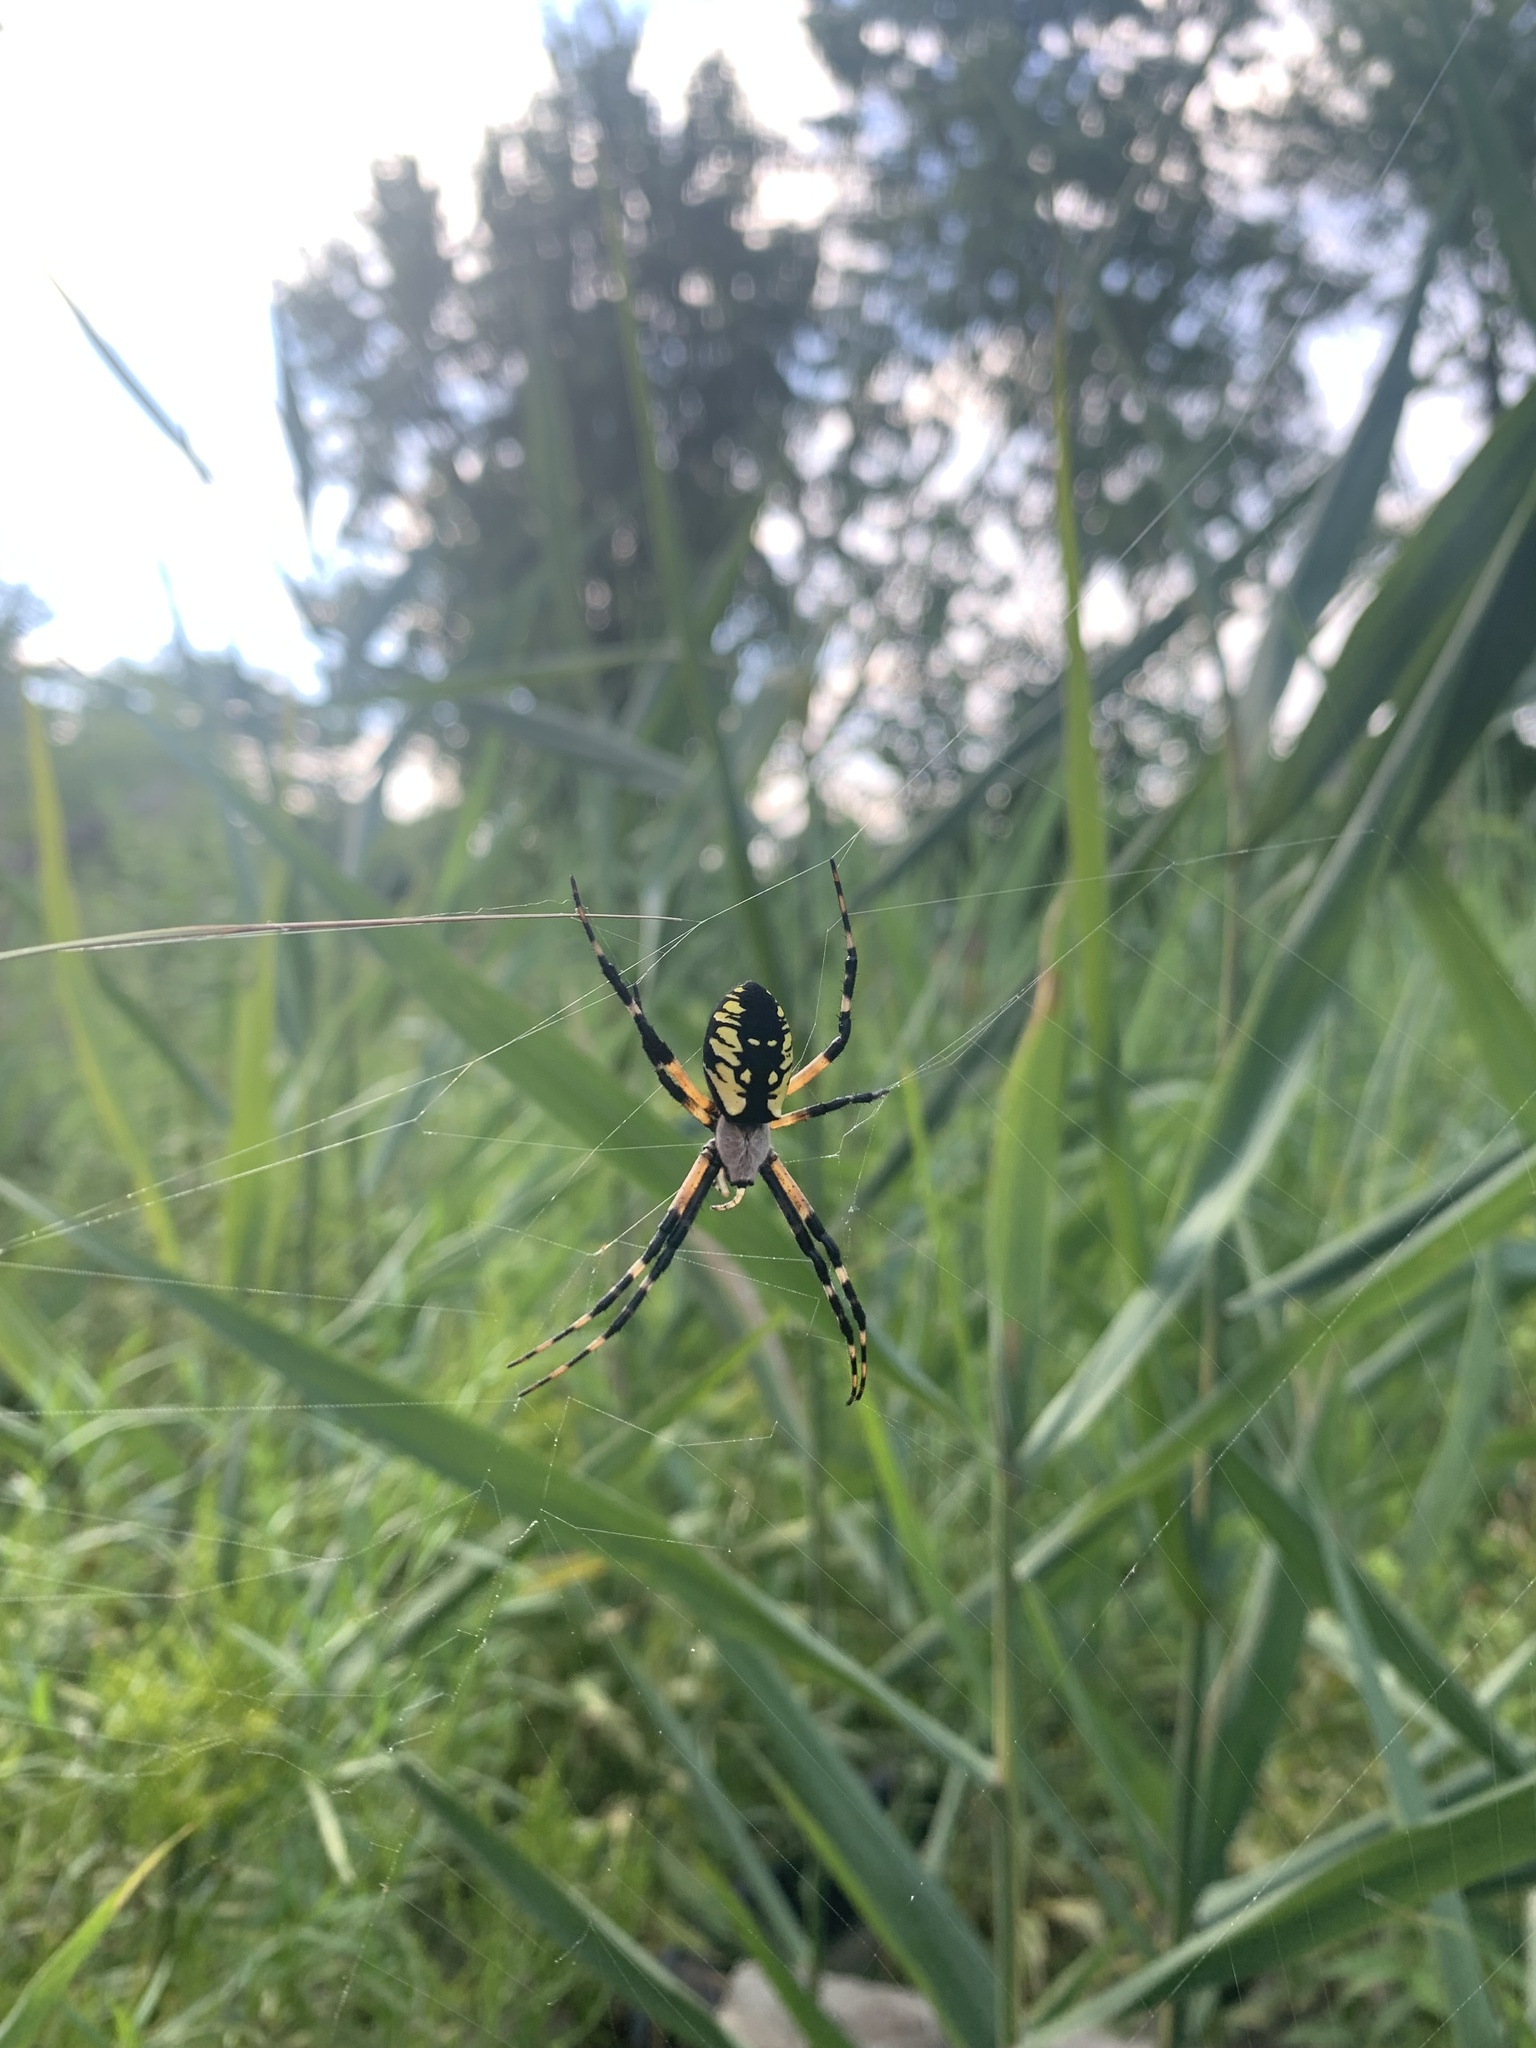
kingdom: Animalia
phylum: Arthropoda
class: Arachnida
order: Araneae
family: Araneidae
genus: Argiope
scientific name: Argiope aurantia
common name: Orb weavers
